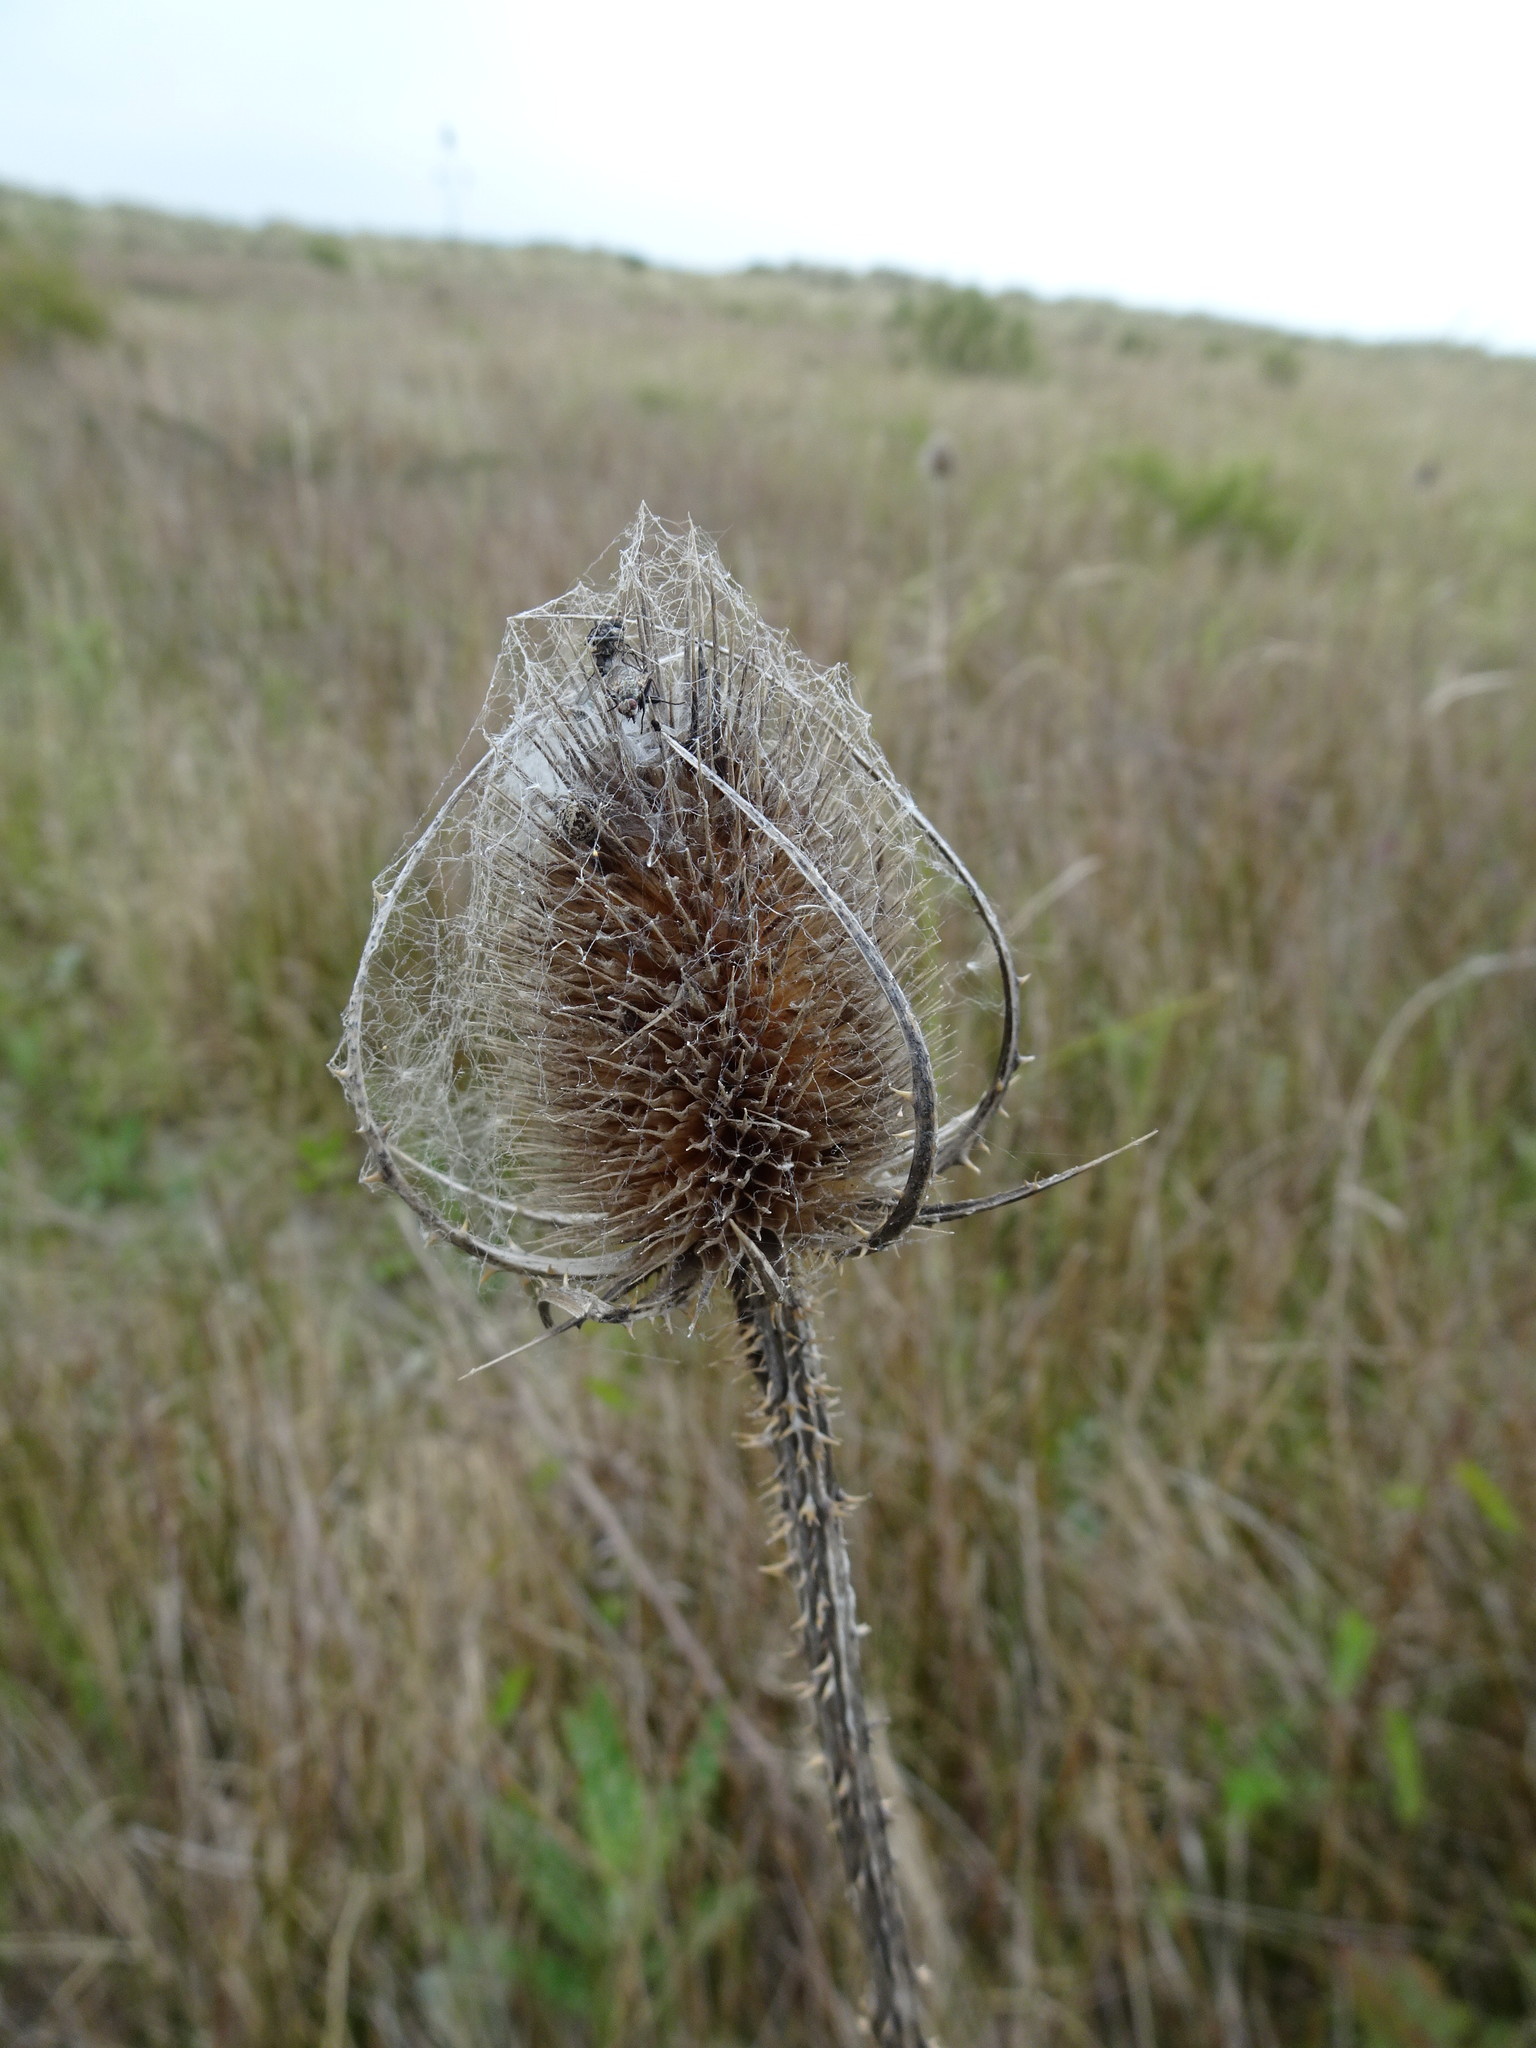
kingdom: Plantae
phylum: Tracheophyta
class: Magnoliopsida
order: Dipsacales
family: Caprifoliaceae
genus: Dipsacus
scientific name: Dipsacus fullonum
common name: Teasel
